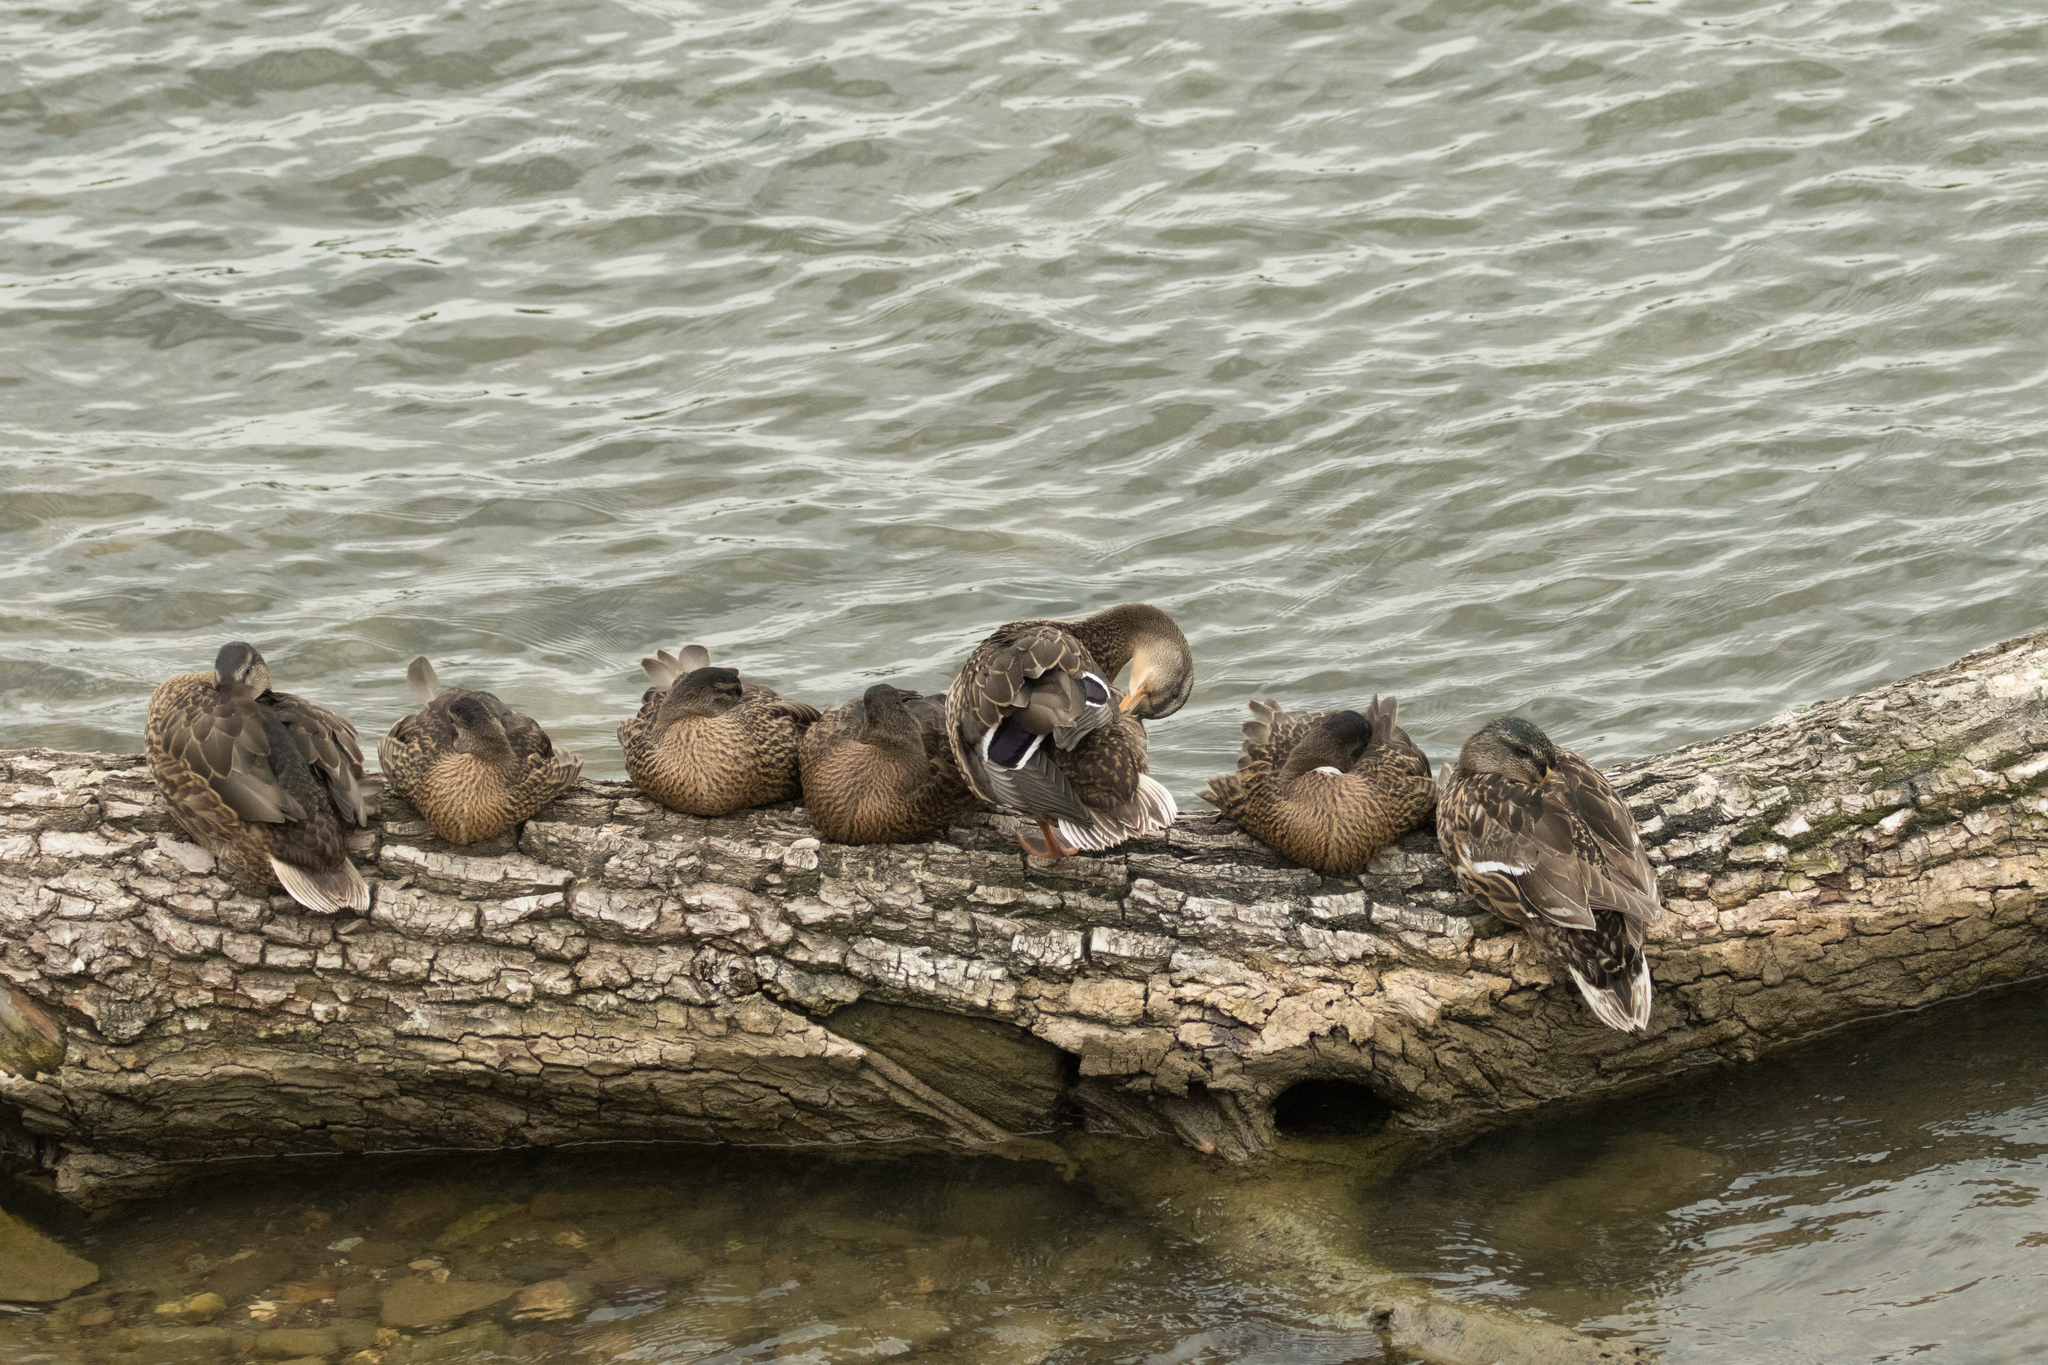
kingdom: Animalia
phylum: Chordata
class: Aves
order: Anseriformes
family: Anatidae
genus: Anas
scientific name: Anas platyrhynchos
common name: Mallard
